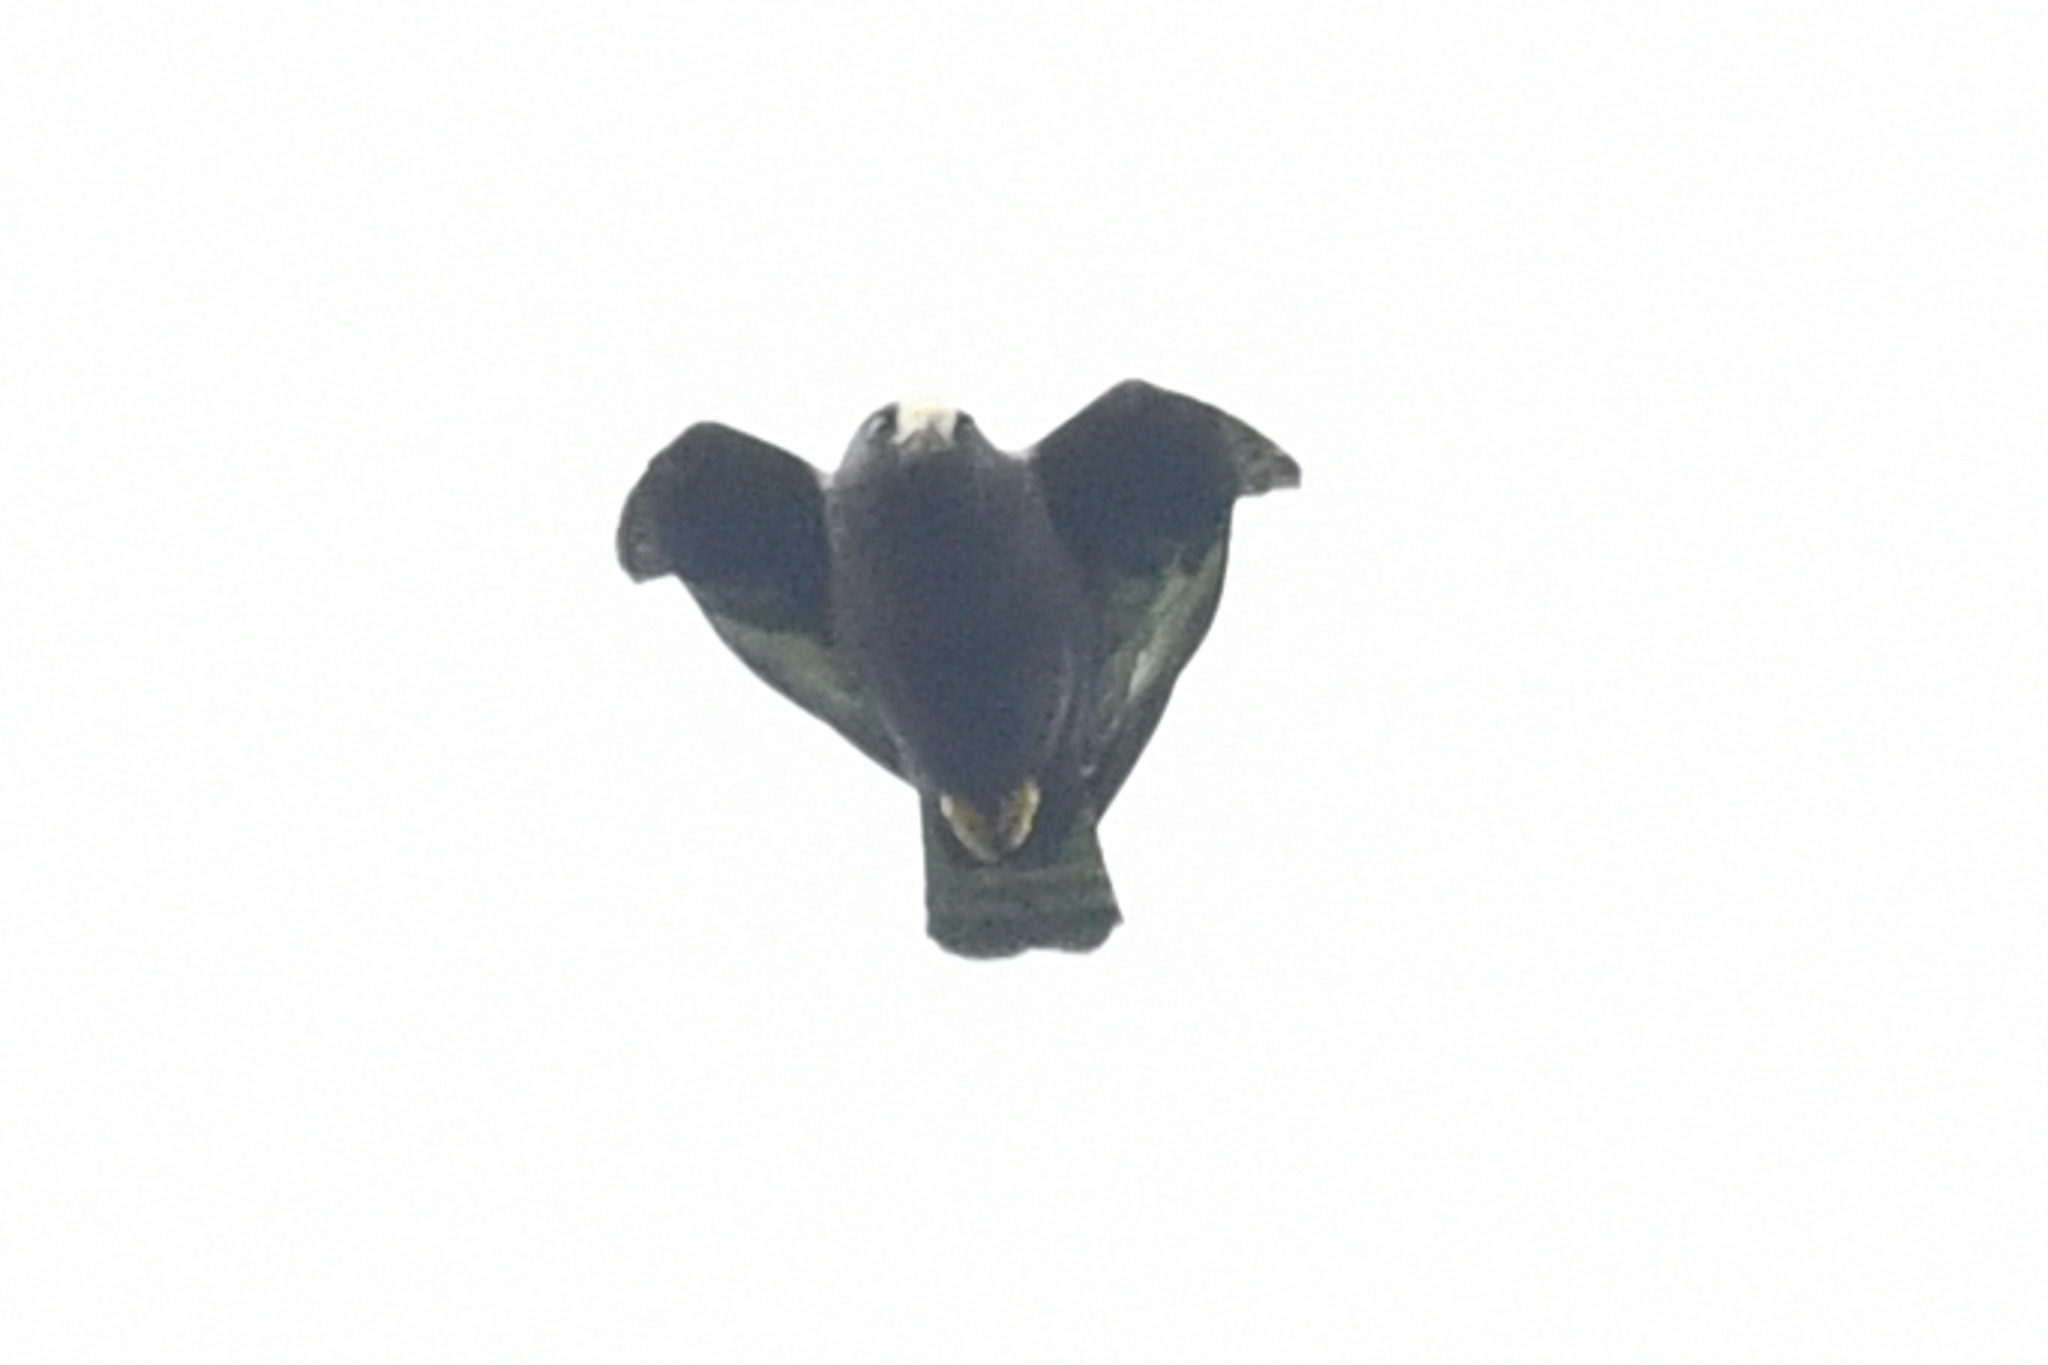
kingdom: Animalia
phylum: Chordata
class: Aves
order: Accipitriformes
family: Accipitridae
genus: Buteo
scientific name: Buteo brachyurus
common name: Short-tailed hawk
